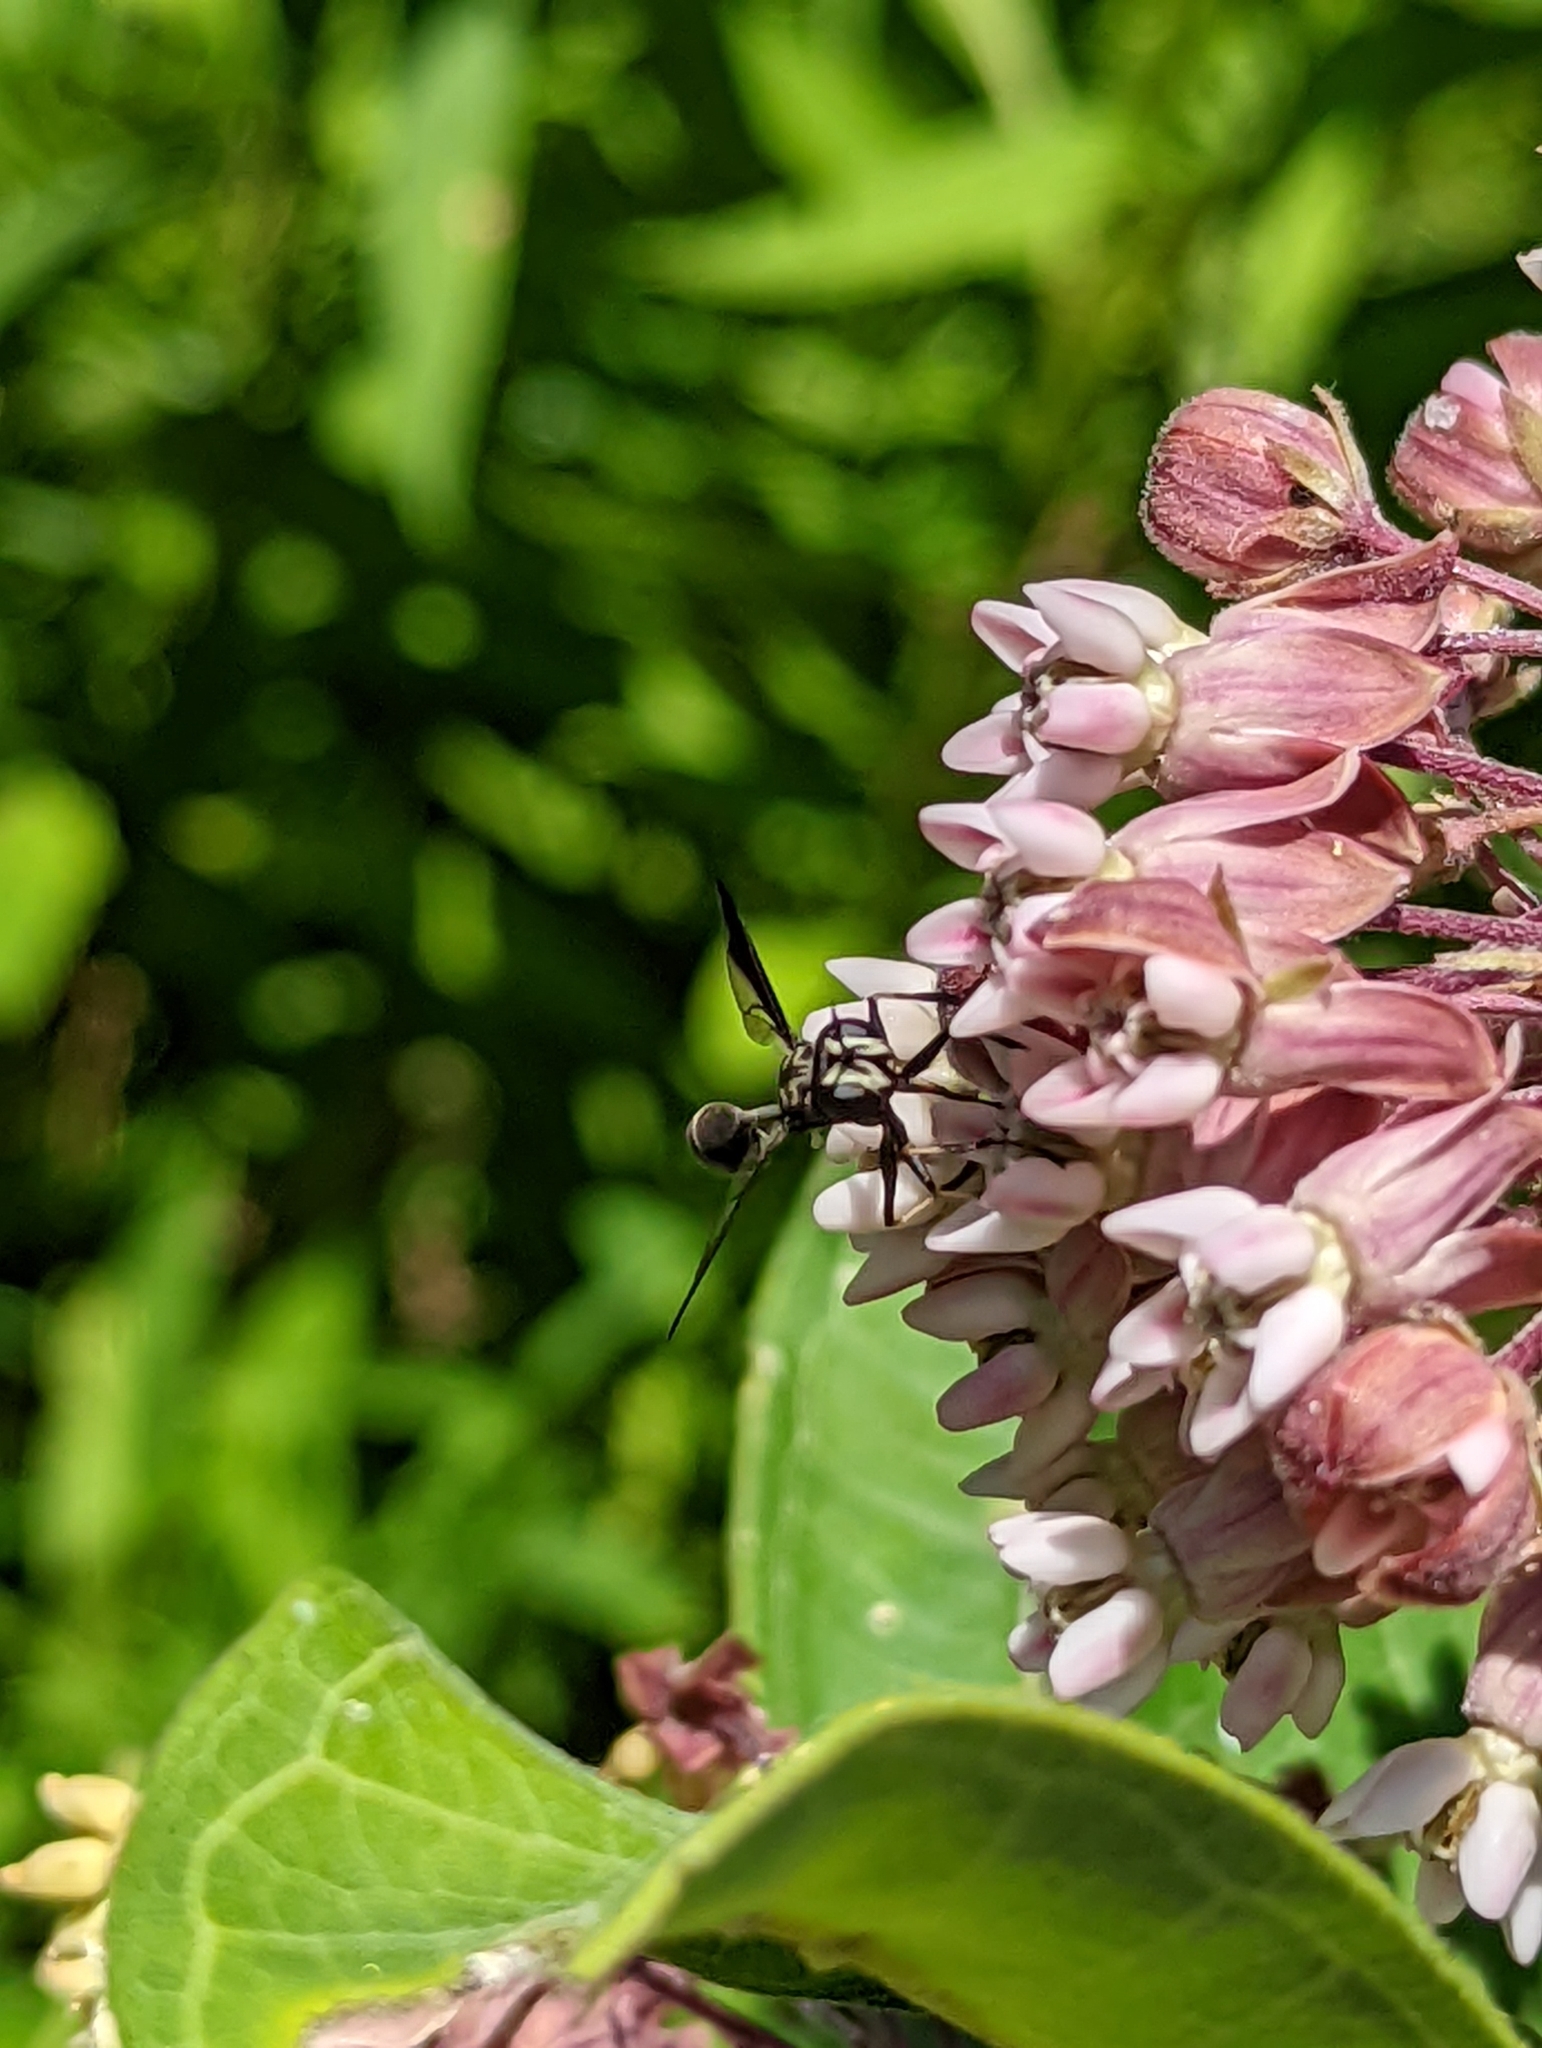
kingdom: Animalia
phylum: Arthropoda
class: Insecta
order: Diptera
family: Conopidae
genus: Physocephala
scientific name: Physocephala tibialis
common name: Common eastern physocephala
